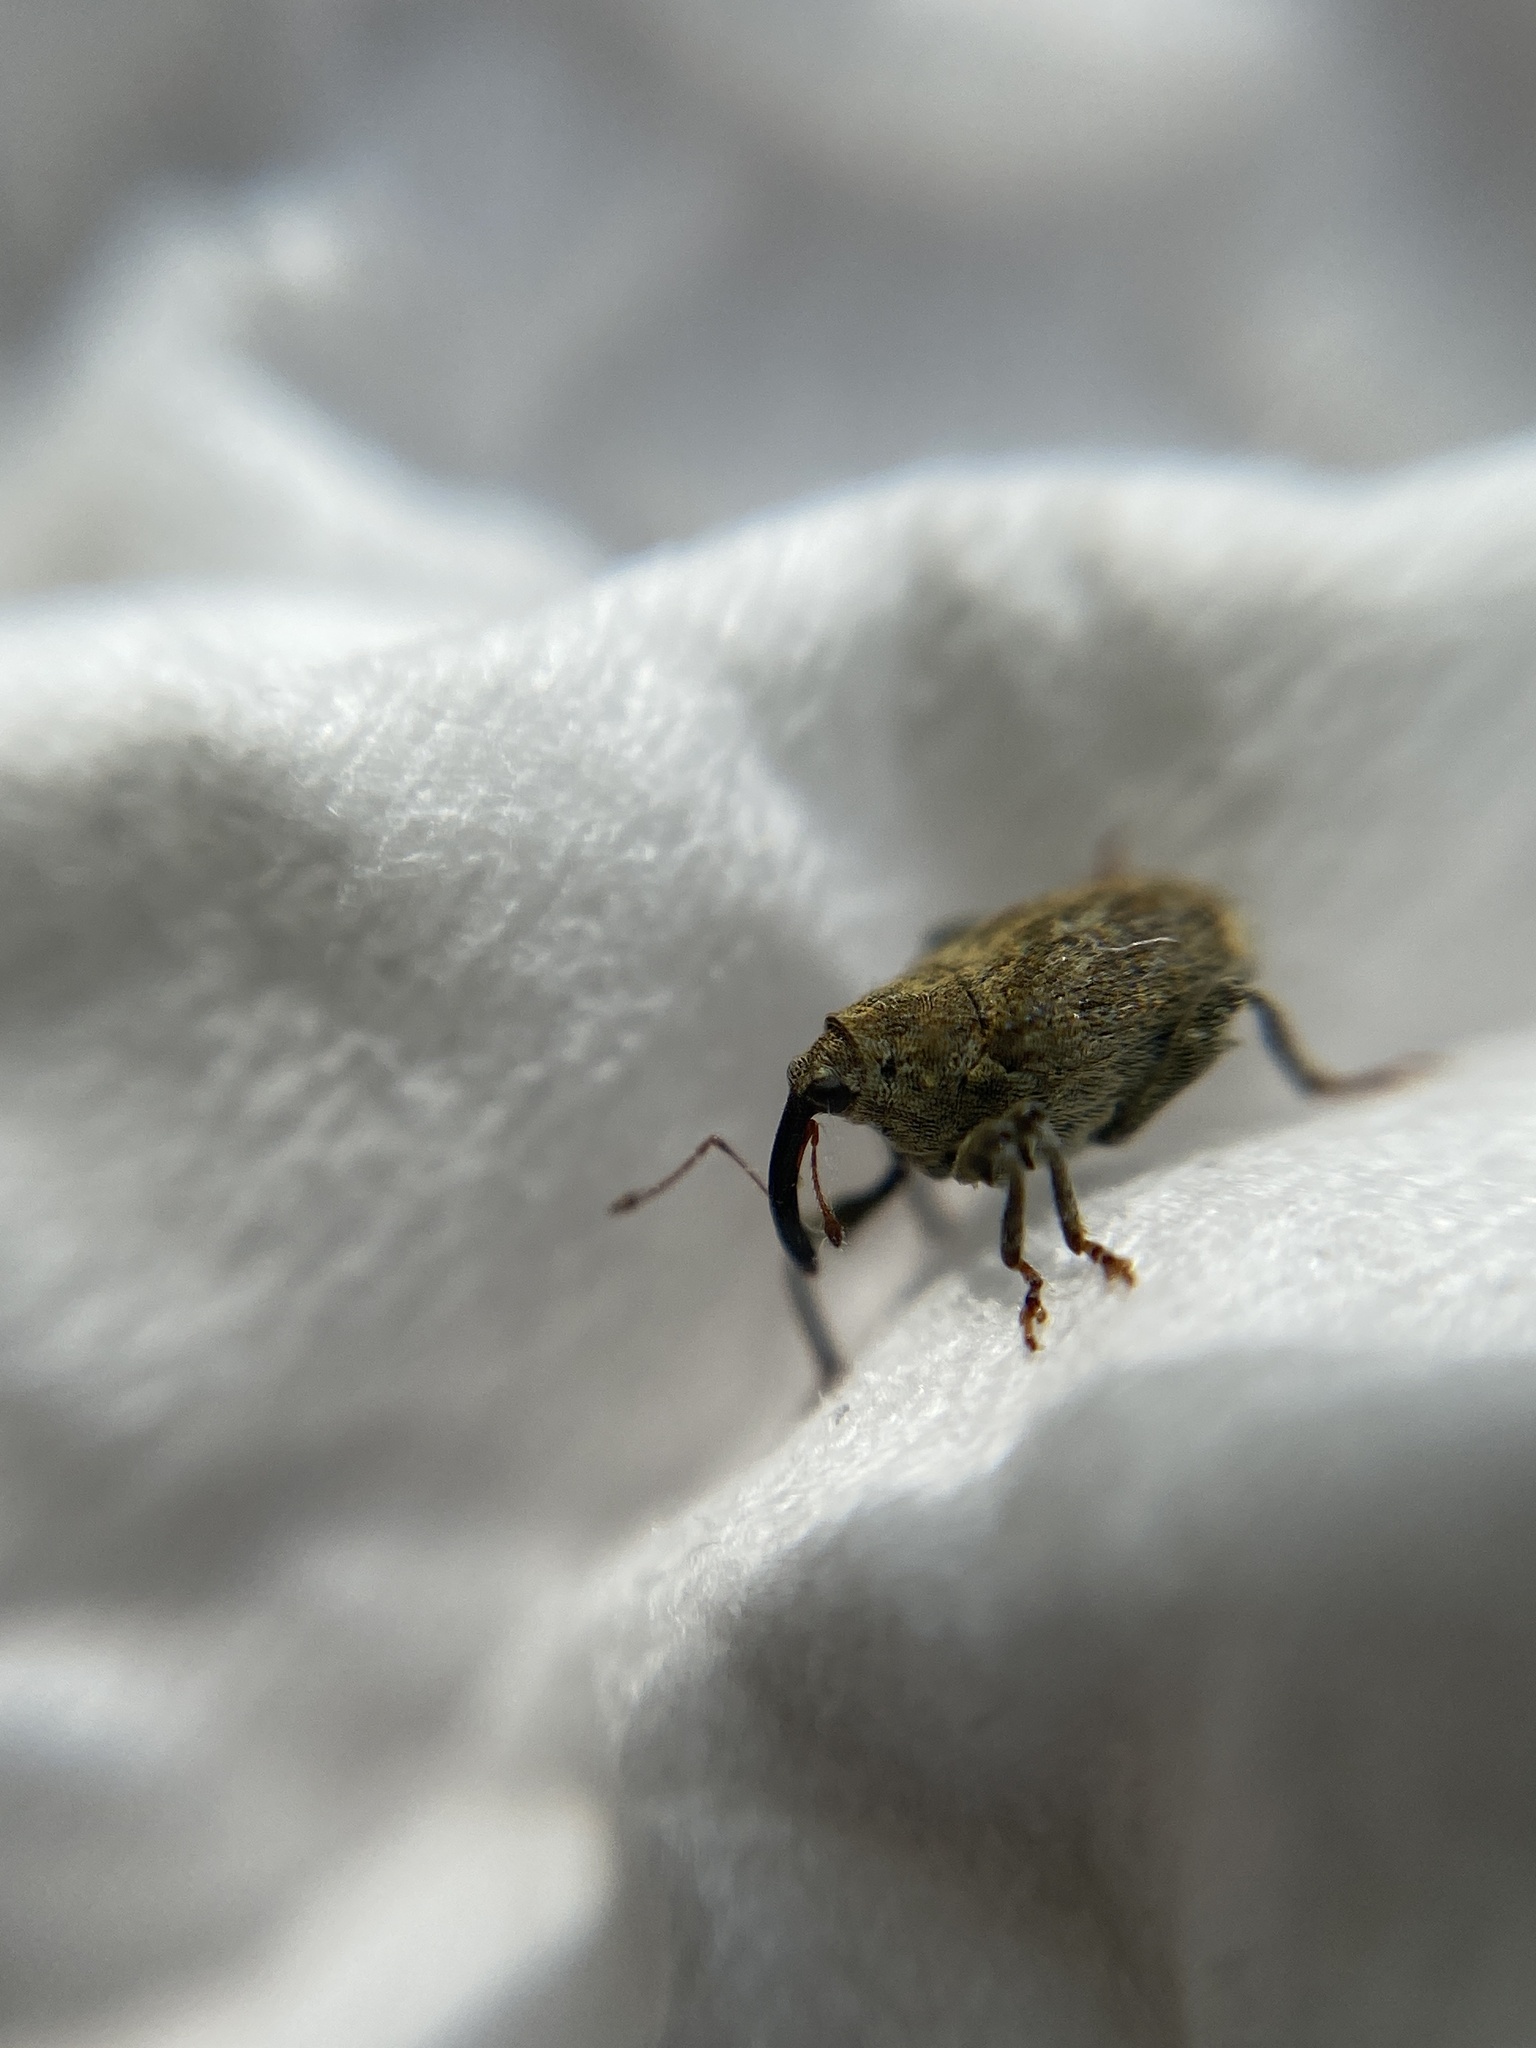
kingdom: Animalia
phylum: Arthropoda
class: Insecta
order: Coleoptera
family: Curculionidae
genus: Parethelcus
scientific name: Parethelcus pollinarius
